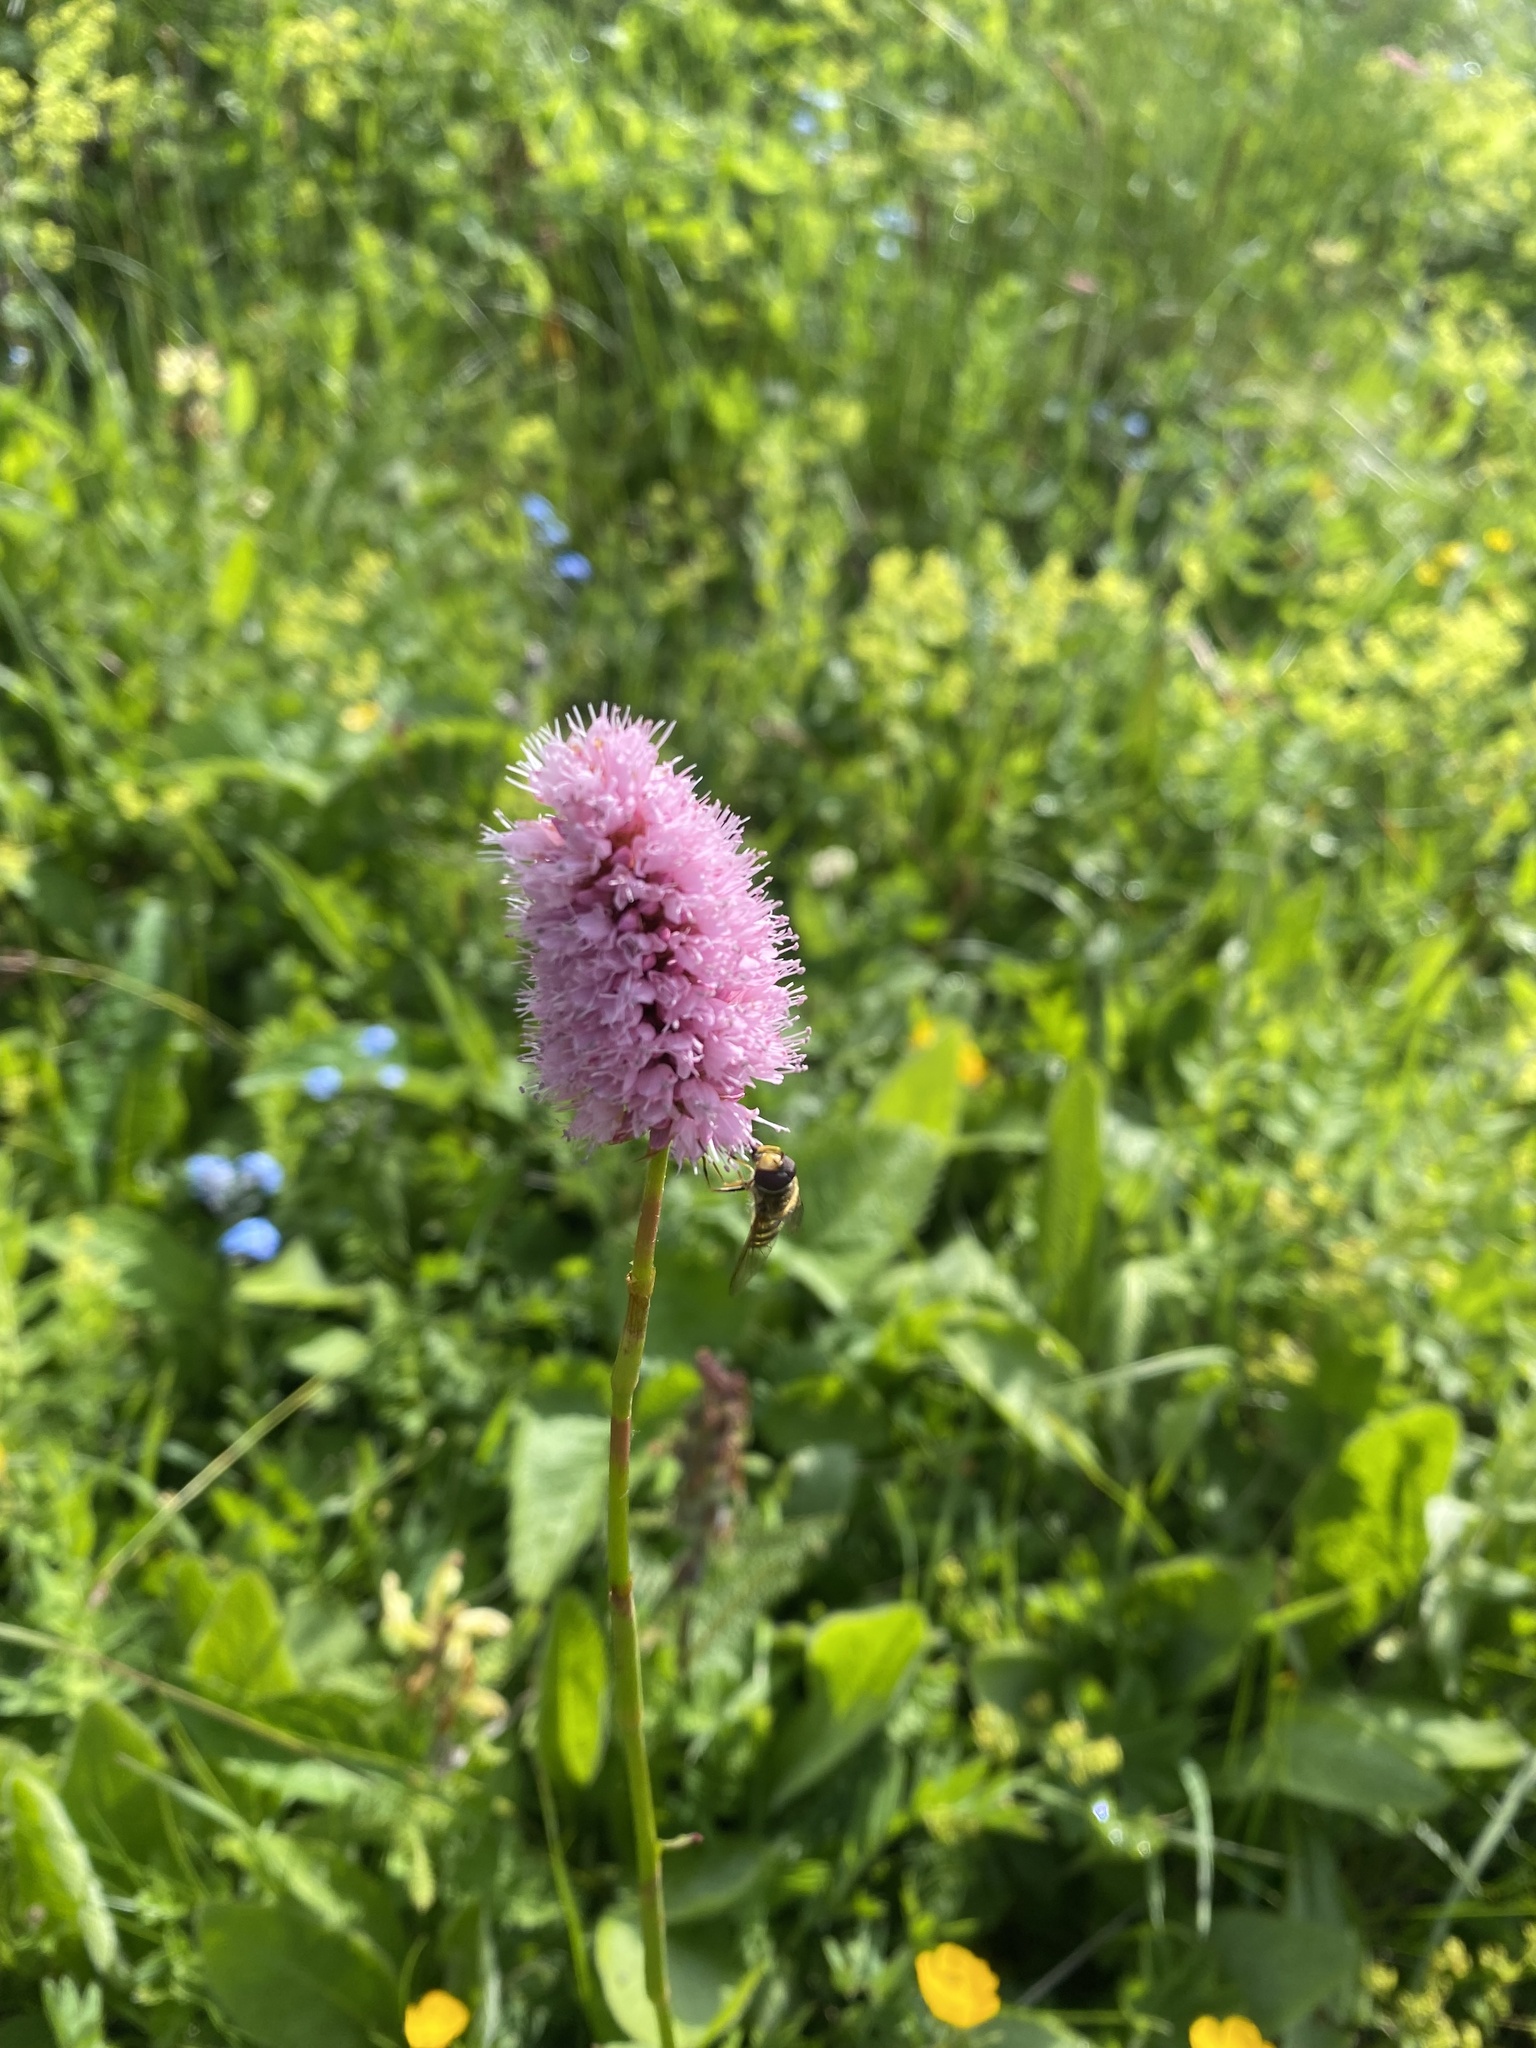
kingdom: Plantae
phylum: Tracheophyta
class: Magnoliopsida
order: Caryophyllales
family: Polygonaceae
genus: Bistorta
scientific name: Bistorta carnea
